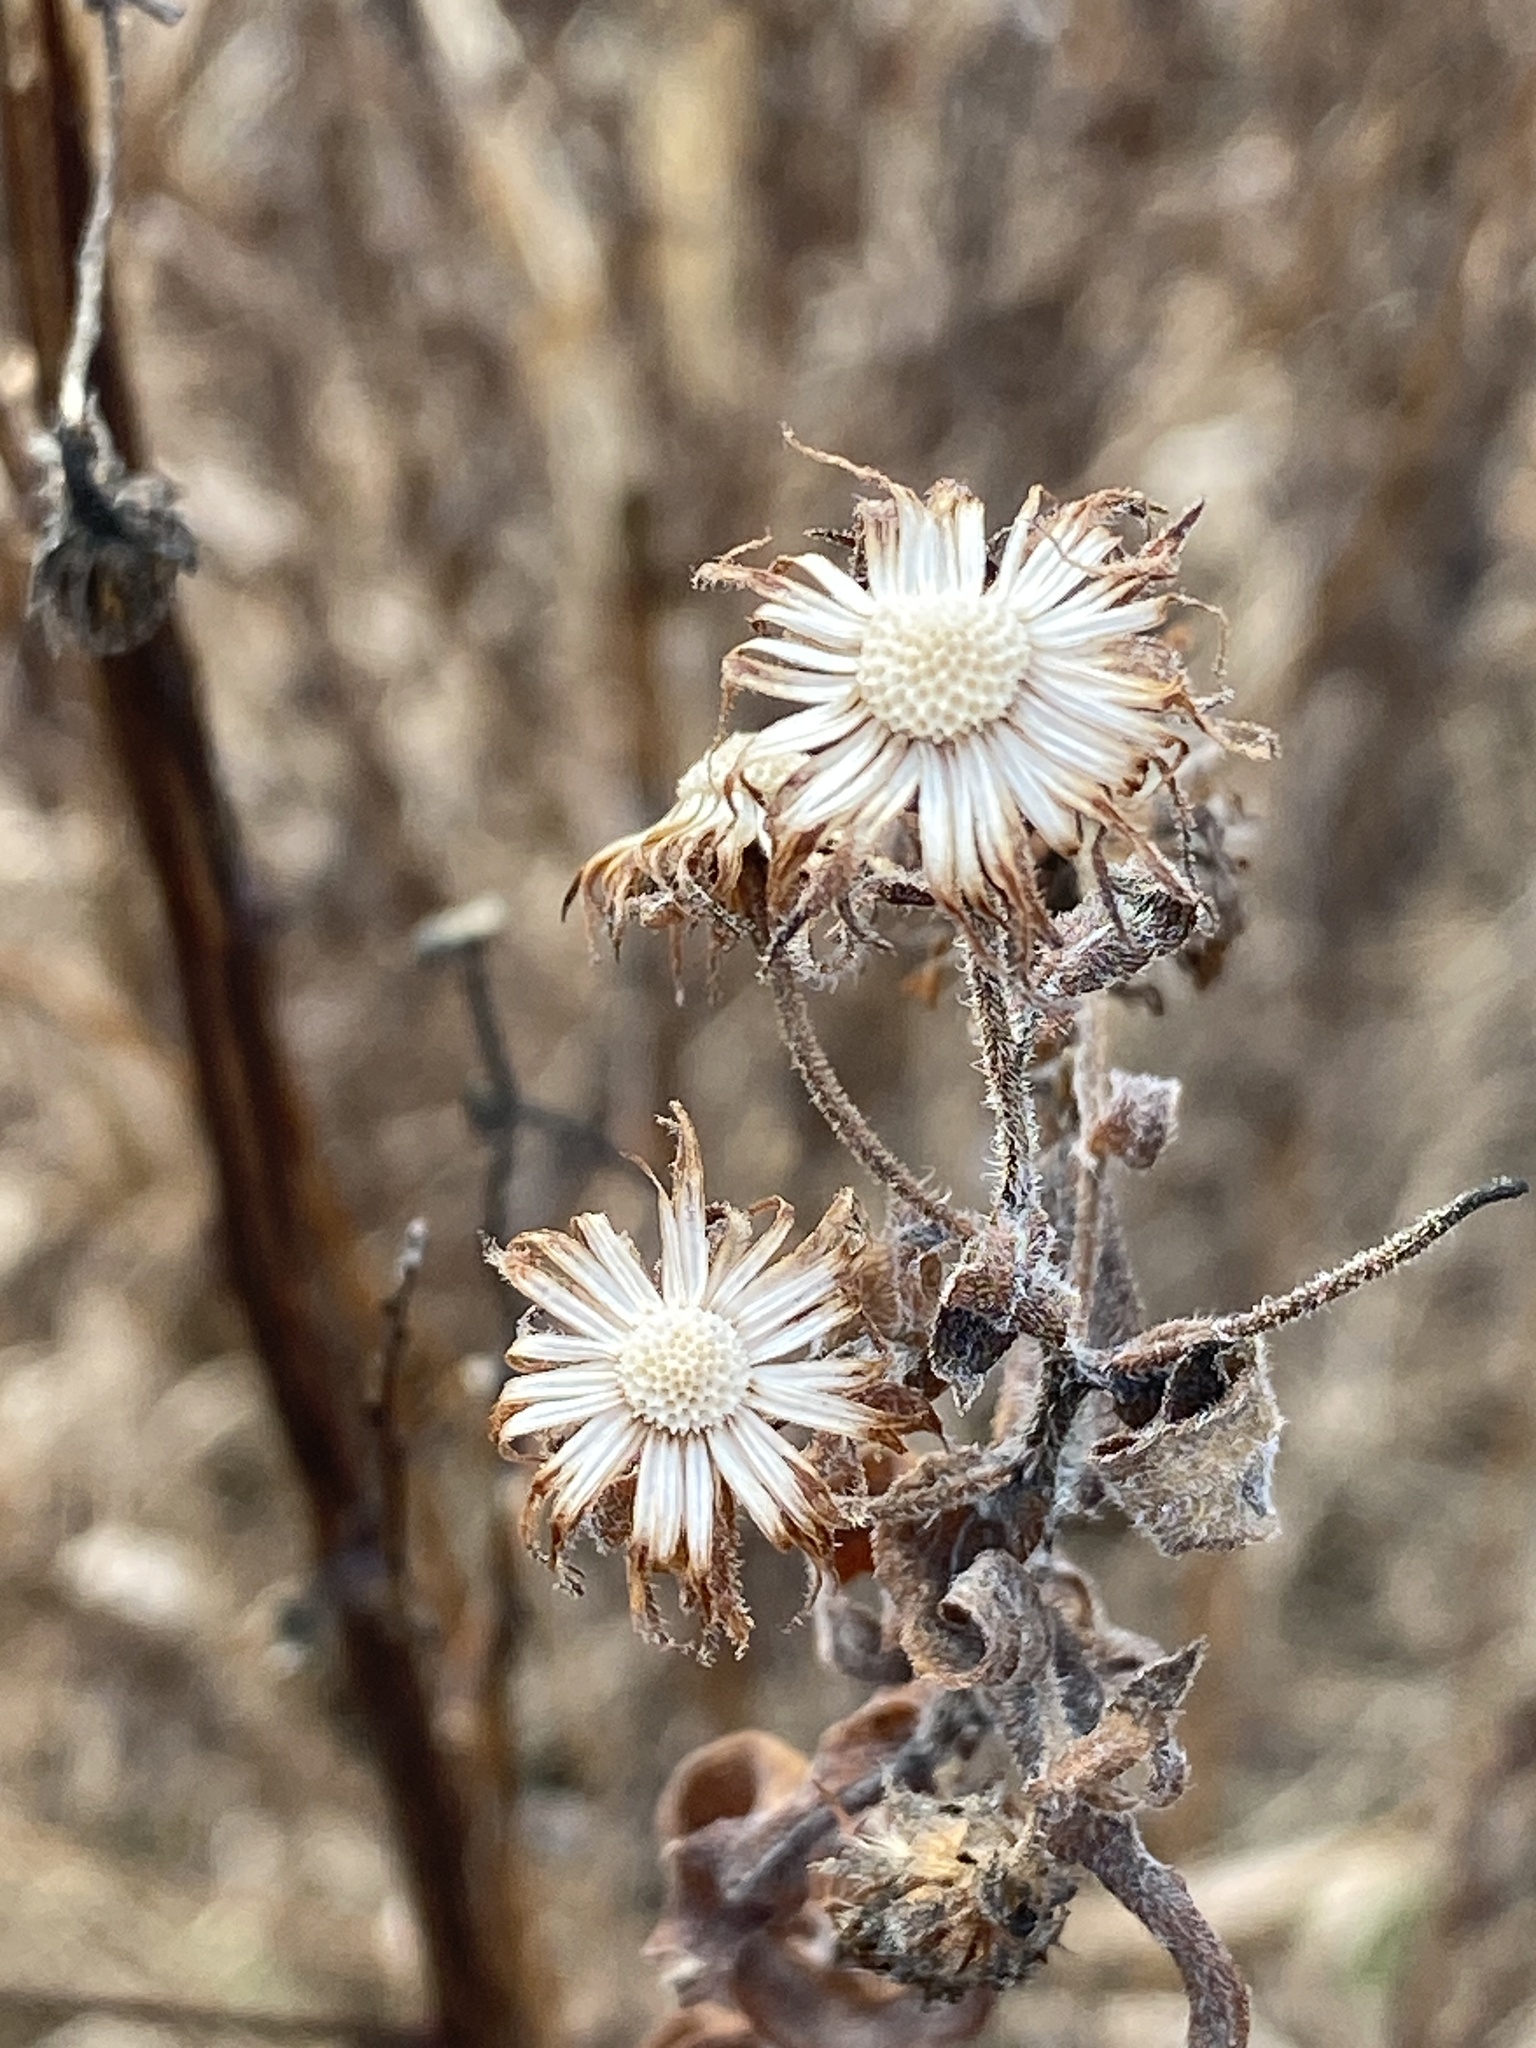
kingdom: Plantae
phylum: Tracheophyta
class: Magnoliopsida
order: Asterales
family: Asteraceae
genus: Symphyotrichum
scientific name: Symphyotrichum novae-angliae
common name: Michaelmas daisy
